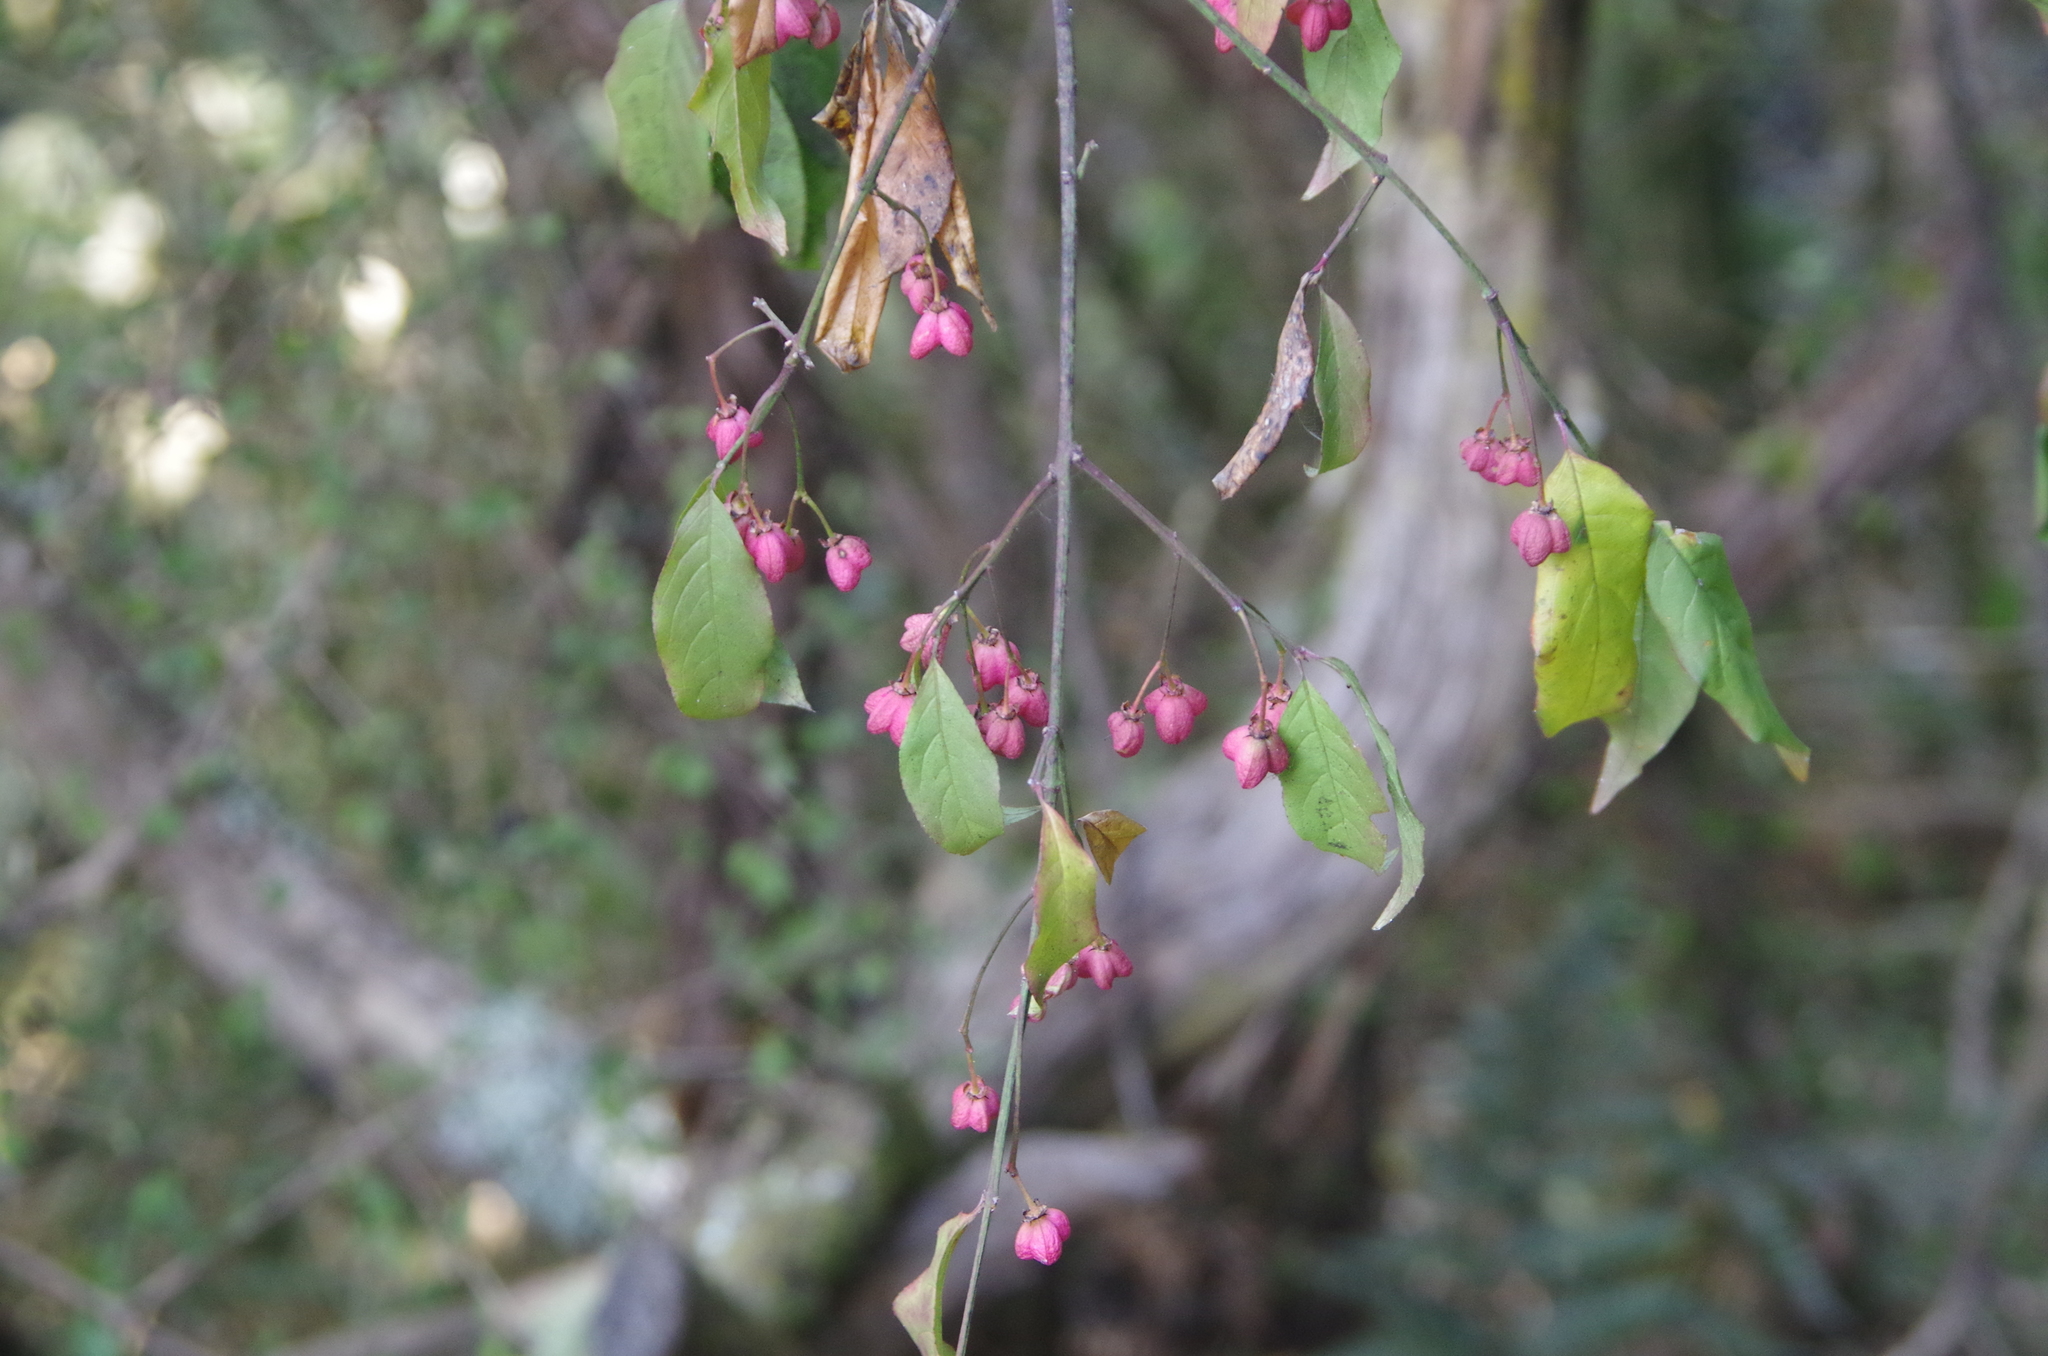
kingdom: Plantae
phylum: Tracheophyta
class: Magnoliopsida
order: Celastrales
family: Celastraceae
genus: Euonymus
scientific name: Euonymus europaeus
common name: Spindle
